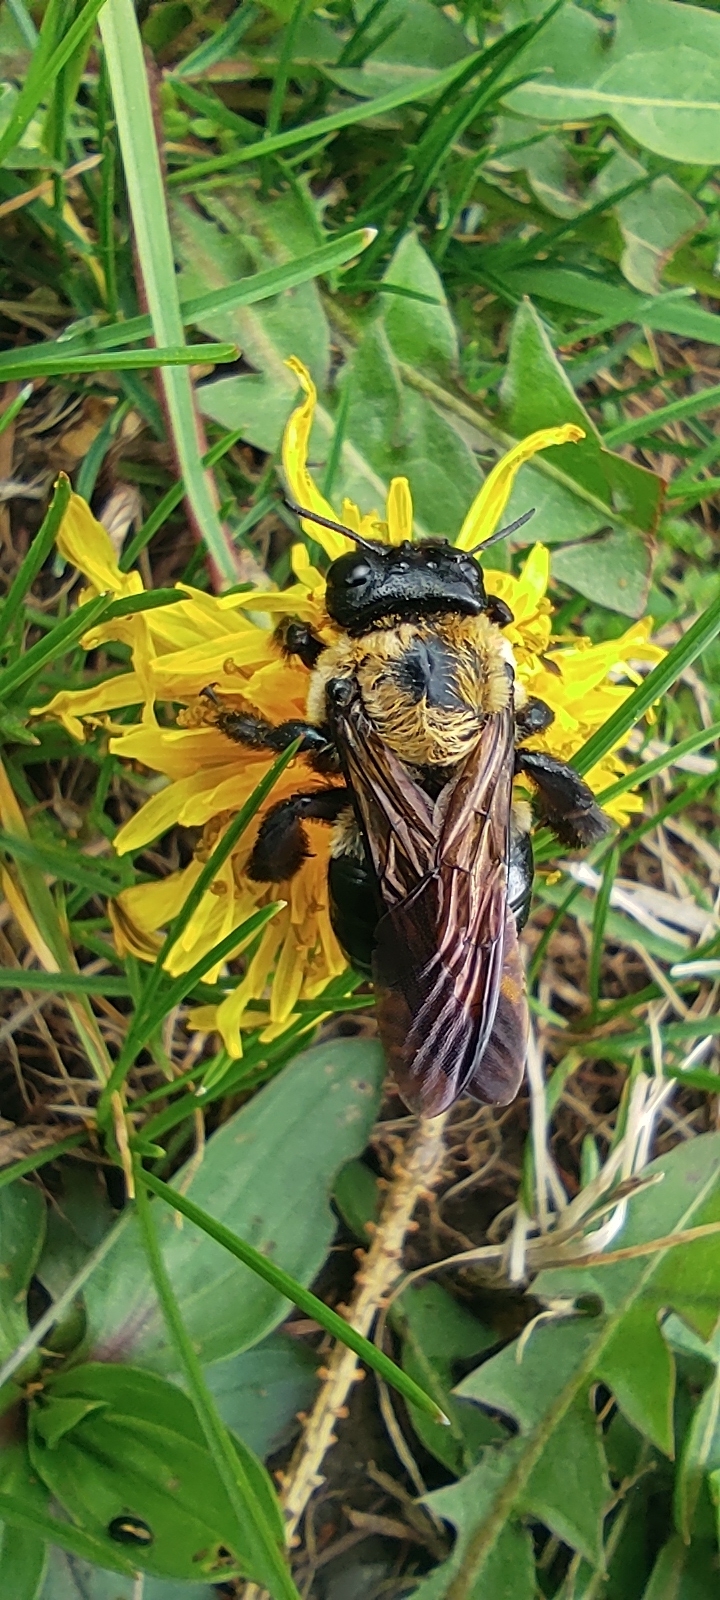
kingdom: Animalia
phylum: Arthropoda
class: Insecta
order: Hymenoptera
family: Apidae
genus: Xylocopa
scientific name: Xylocopa virginica
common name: Carpenter bee
